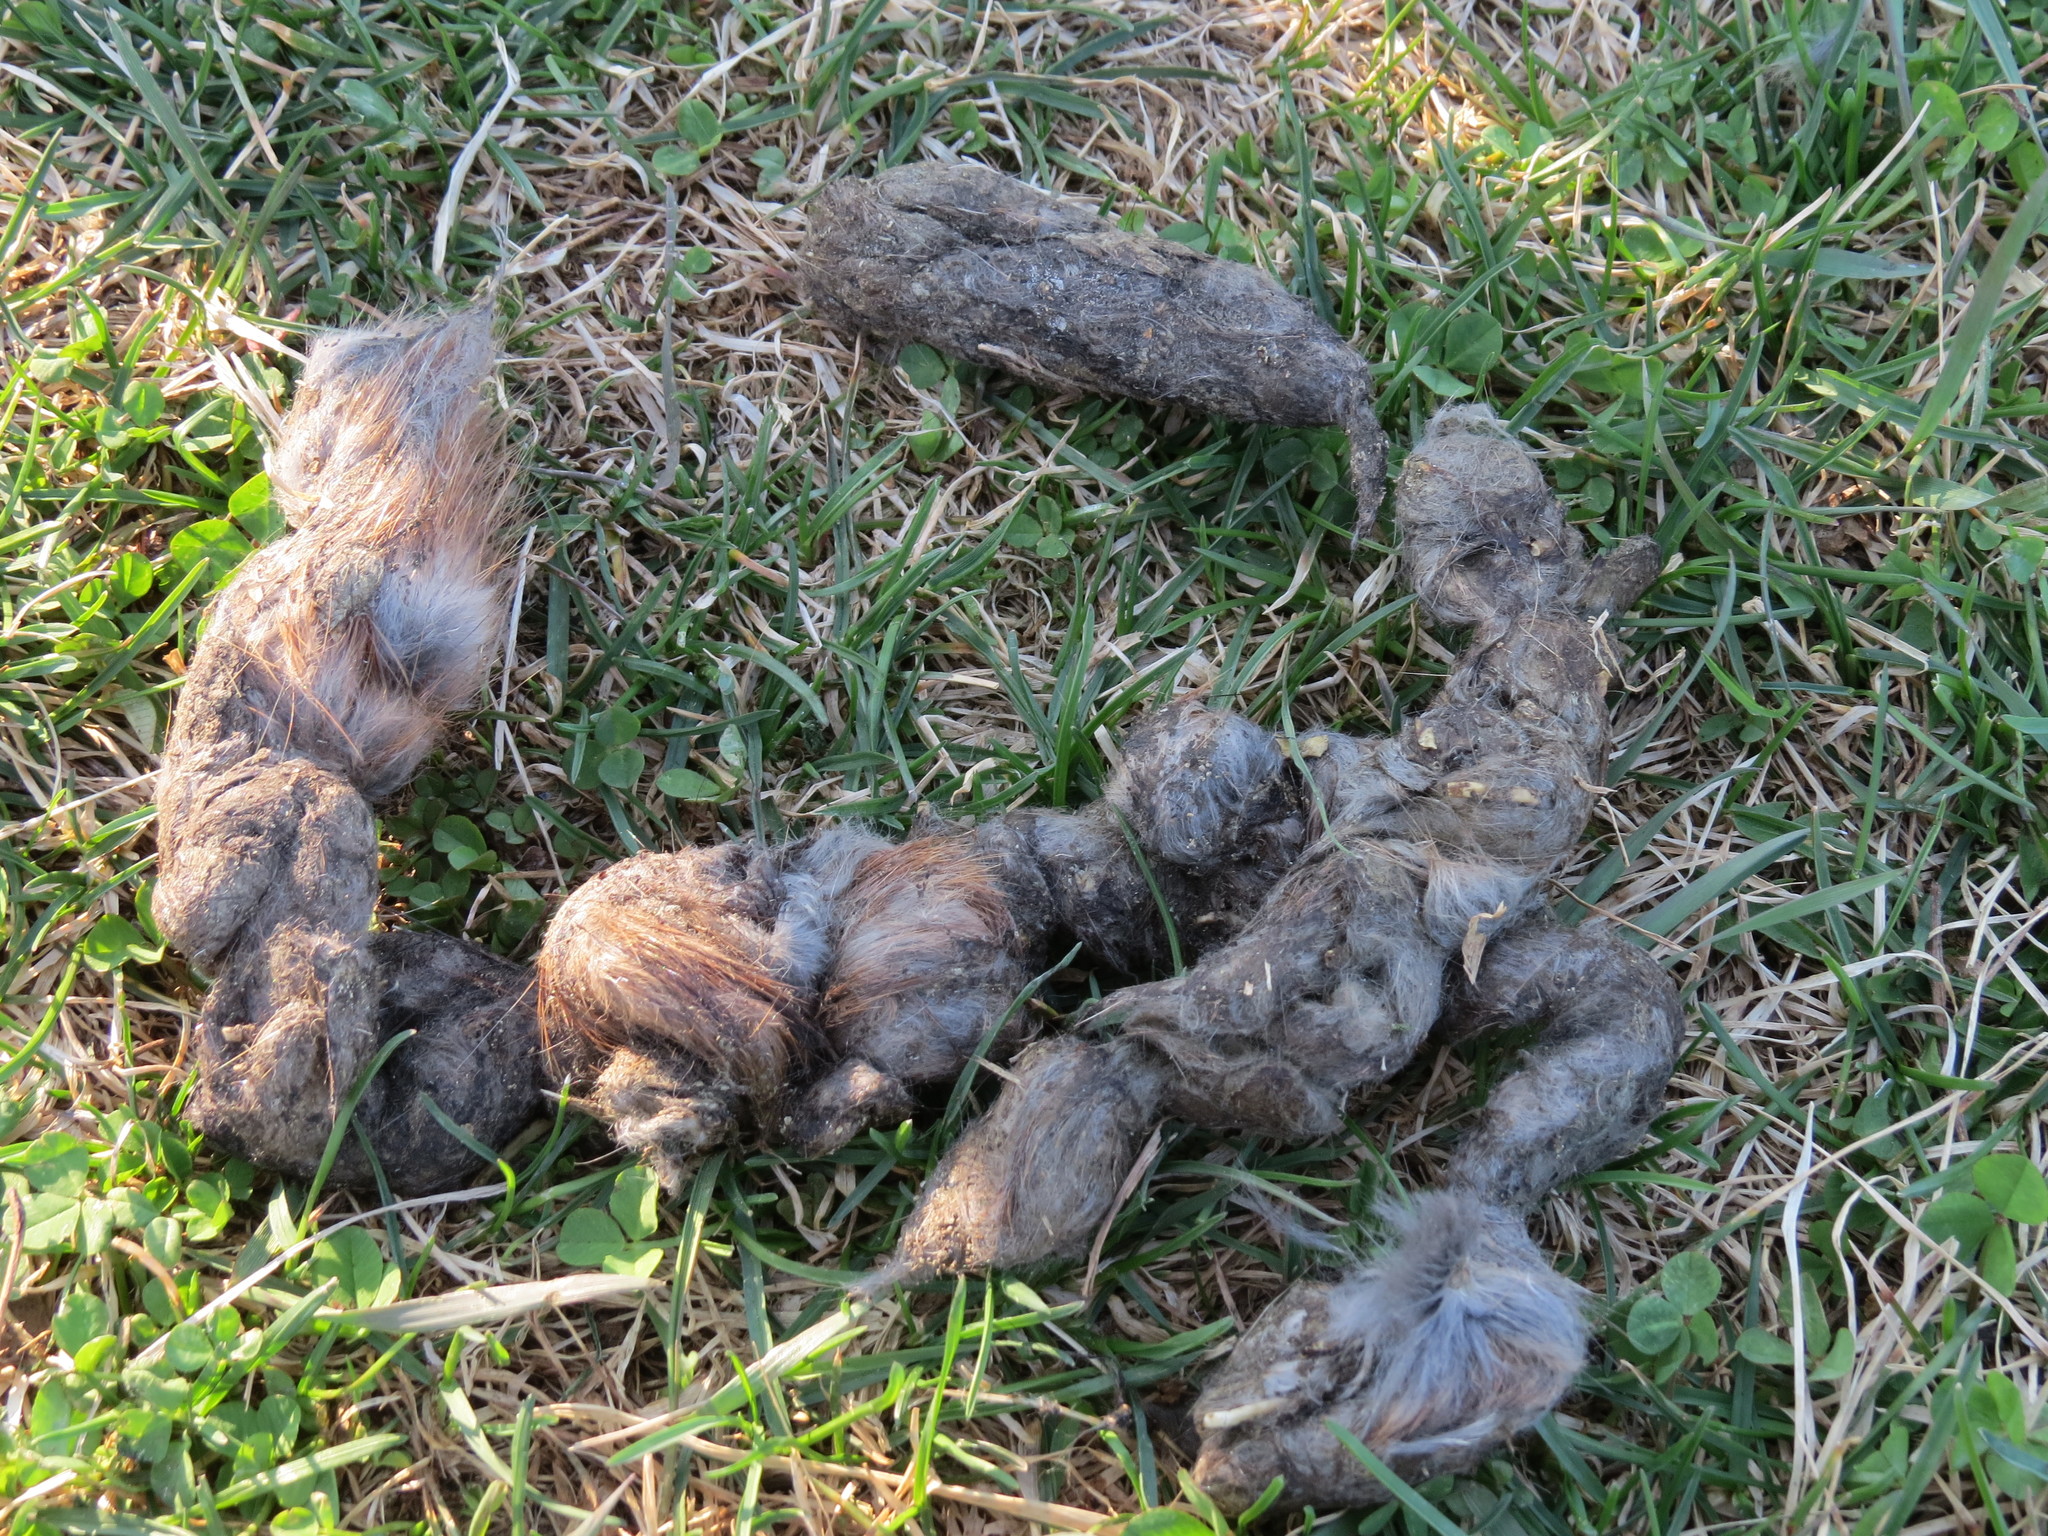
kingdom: Animalia
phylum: Chordata
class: Mammalia
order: Carnivora
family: Canidae
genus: Canis
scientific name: Canis latrans
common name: Coyote
